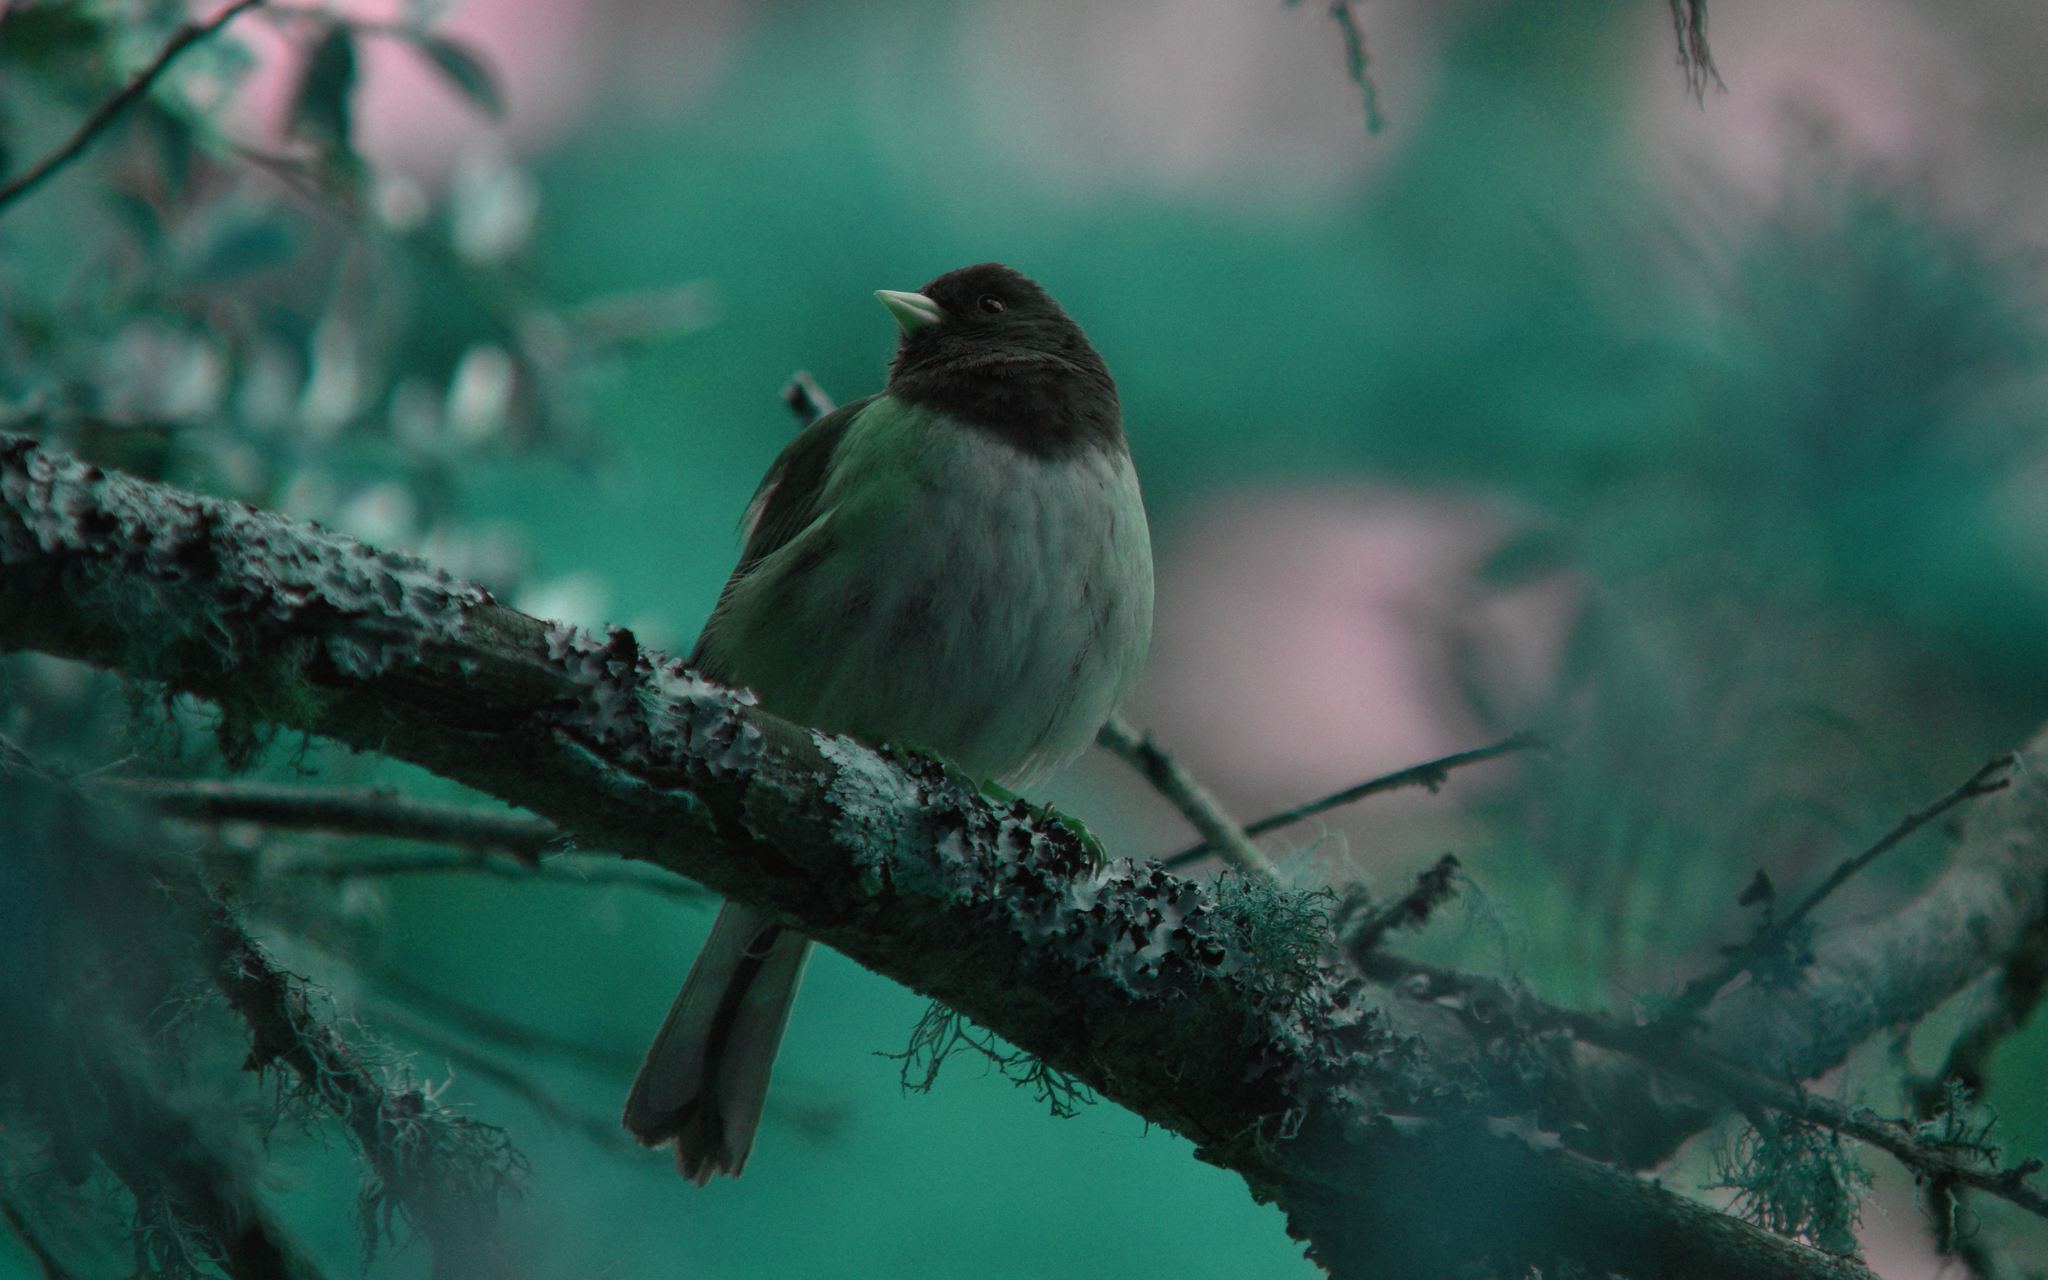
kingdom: Animalia
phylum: Chordata
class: Aves
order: Passeriformes
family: Passerellidae
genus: Junco
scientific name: Junco hyemalis
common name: Dark-eyed junco
